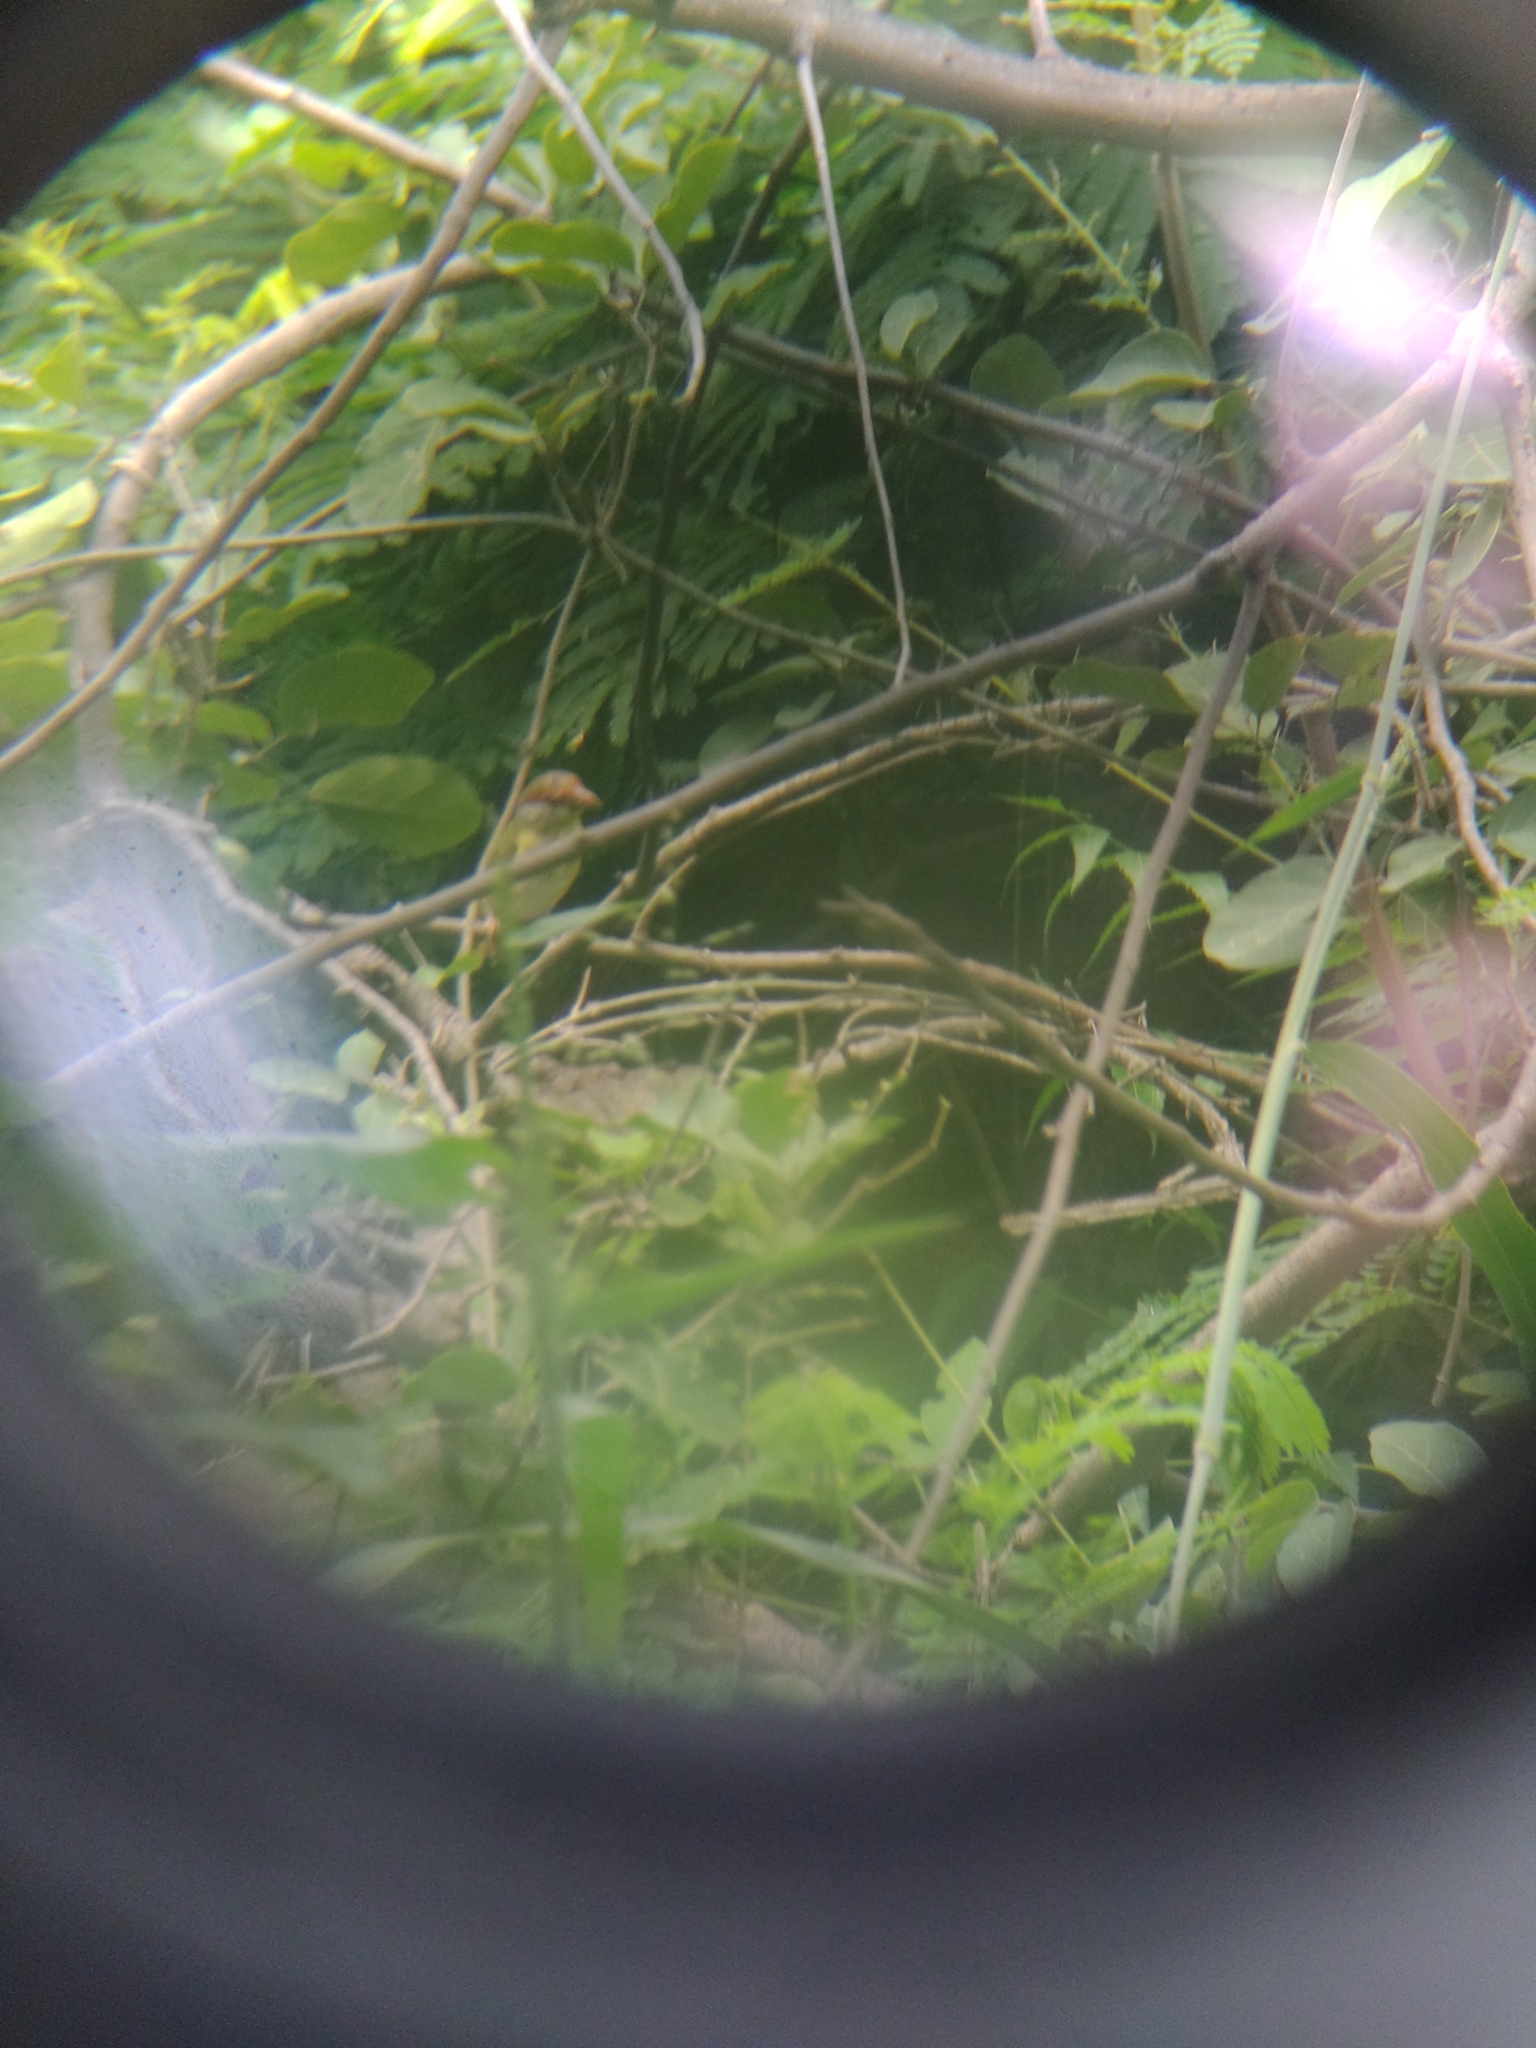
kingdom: Animalia
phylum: Chordata
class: Aves
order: Passeriformes
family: Vireonidae
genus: Cyclarhis
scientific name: Cyclarhis gujanensis
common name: Rufous-browed peppershrike
